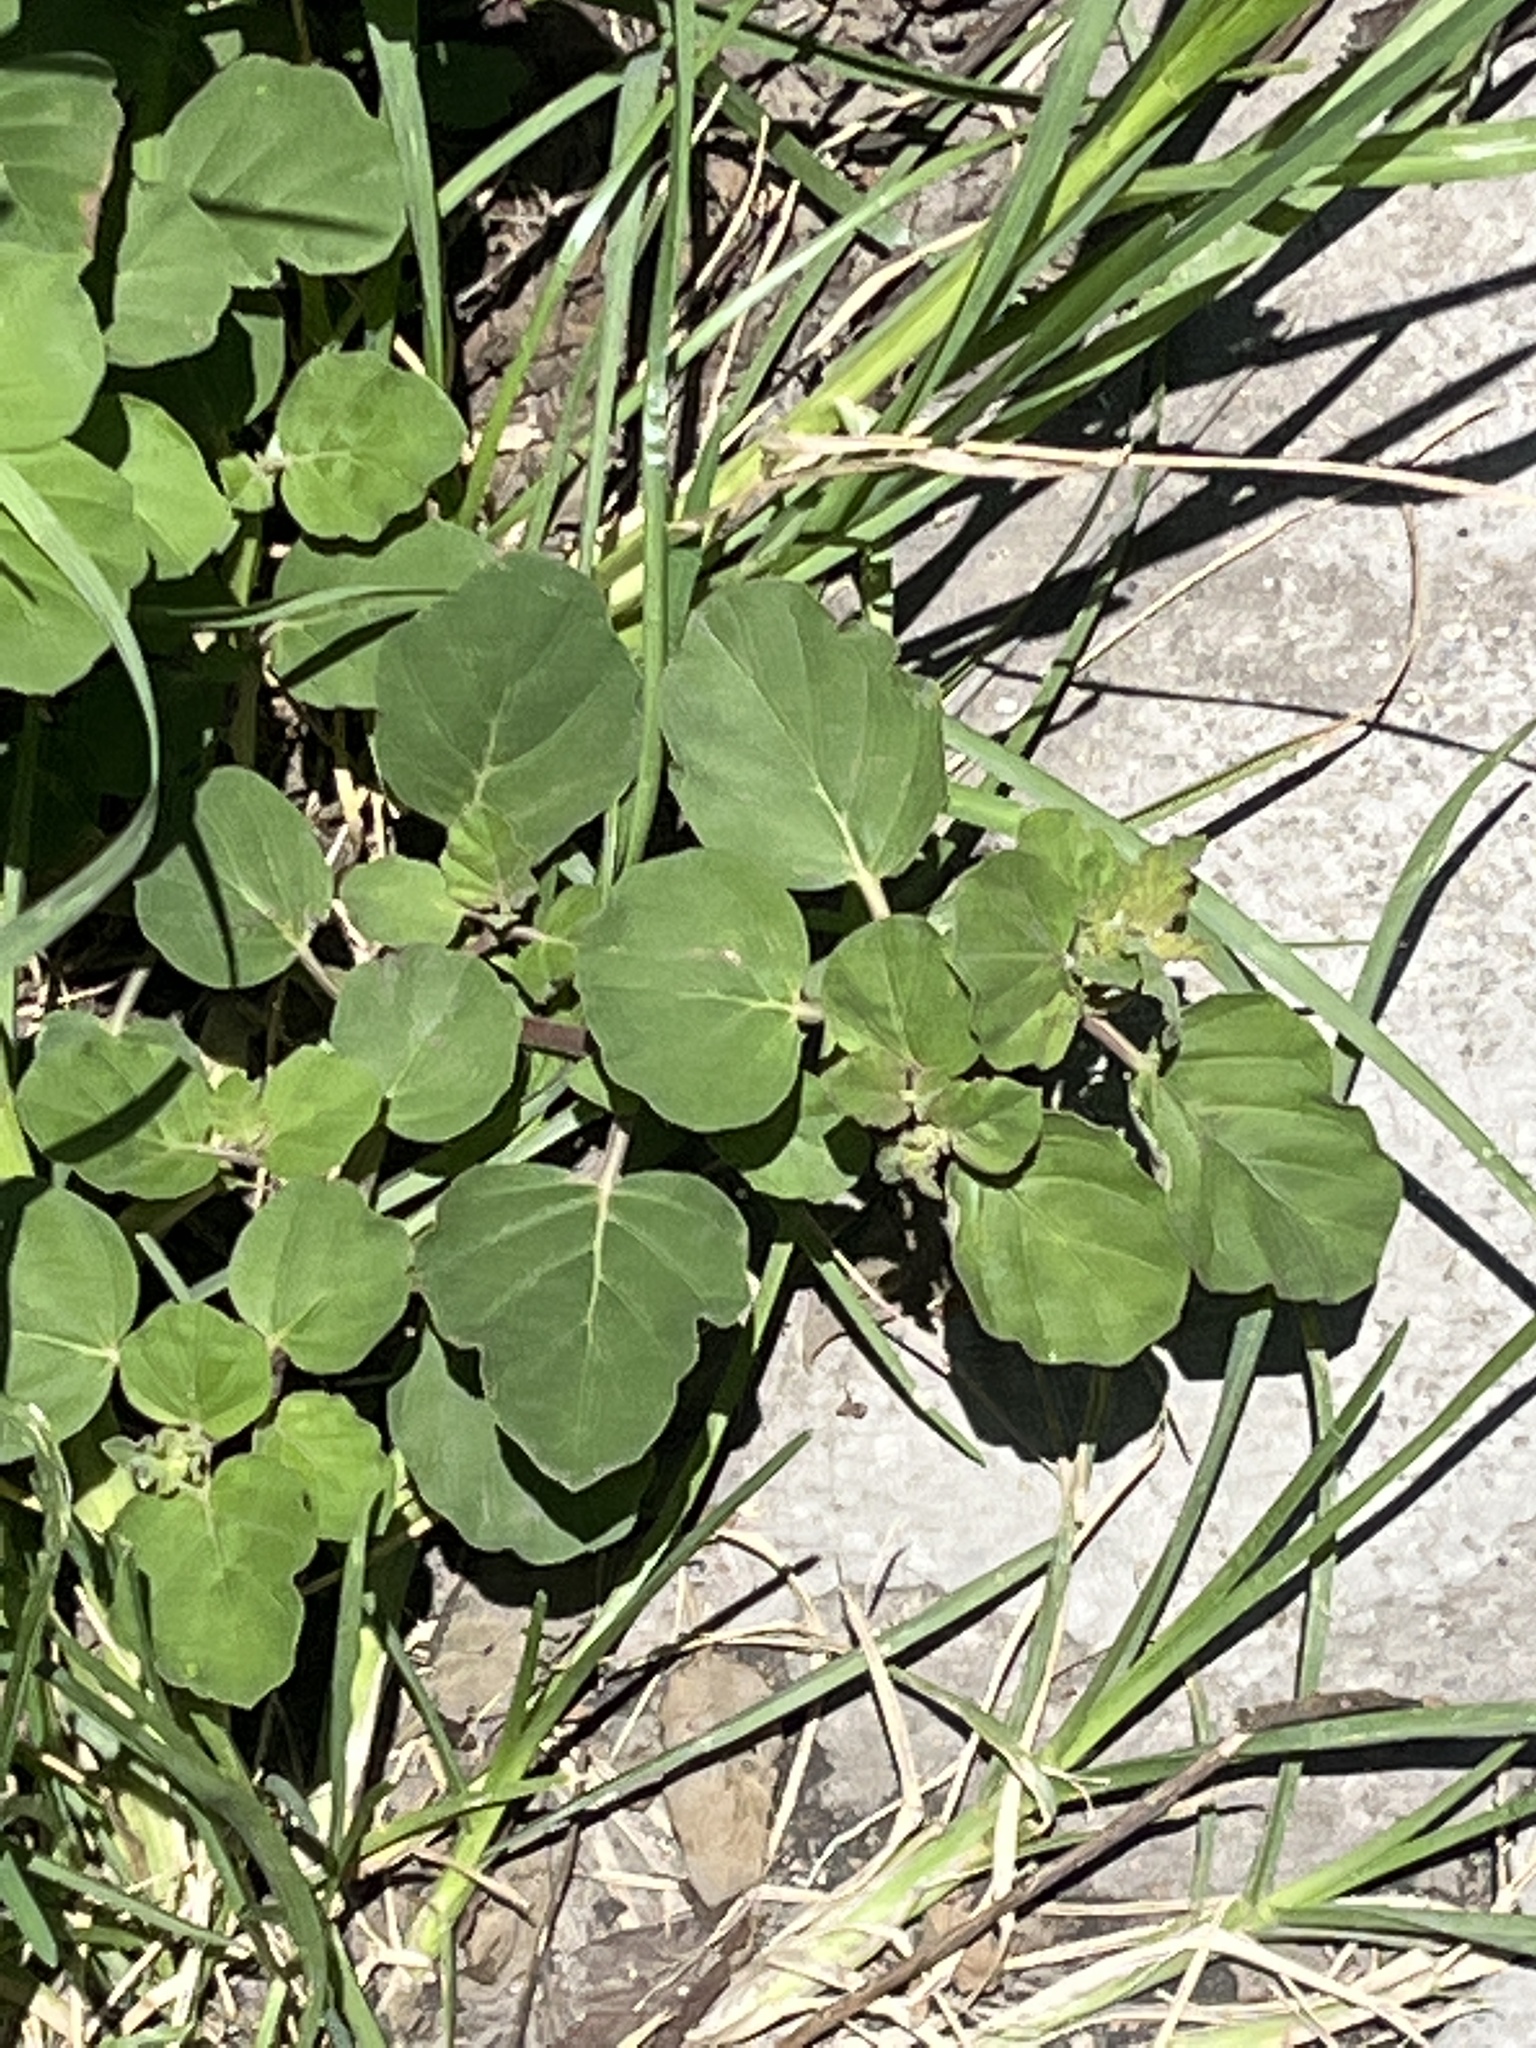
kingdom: Plantae
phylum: Tracheophyta
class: Magnoliopsida
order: Caryophyllales
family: Nyctaginaceae
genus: Boerhavia
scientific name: Boerhavia coccinea
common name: Scarlet spiderling
